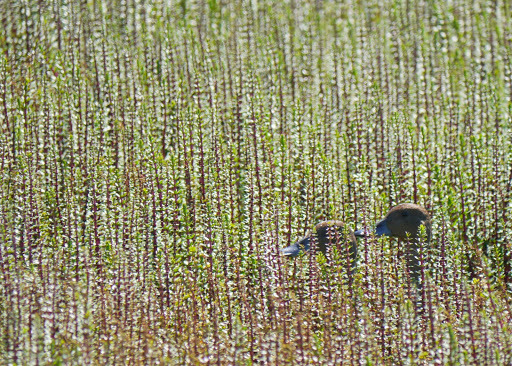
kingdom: Animalia
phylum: Chordata
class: Aves
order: Anseriformes
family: Anatidae
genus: Anas
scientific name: Anas acuta
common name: Northern pintail
